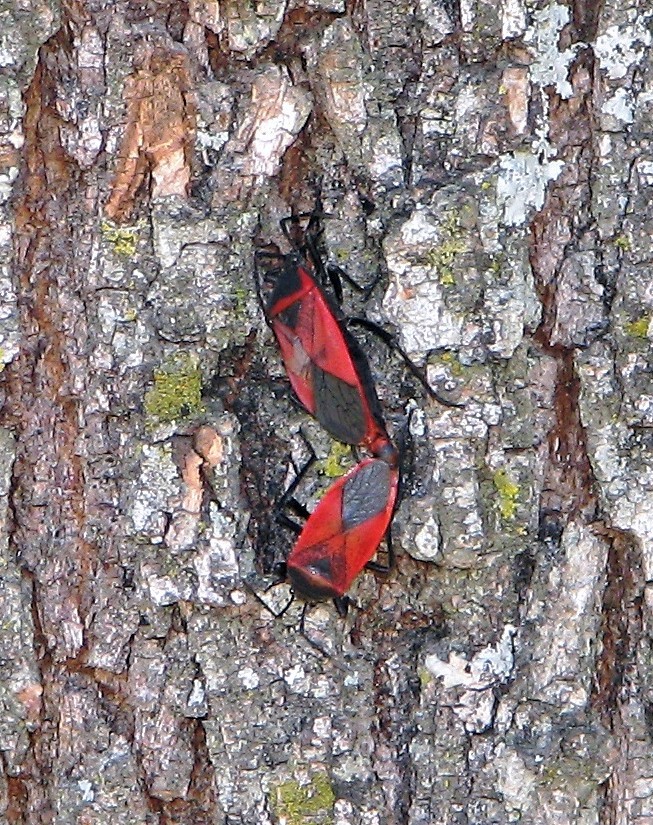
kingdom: Animalia
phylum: Arthropoda
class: Insecta
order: Hemiptera
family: Largidae
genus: Largus
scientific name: Largus rufipennis
